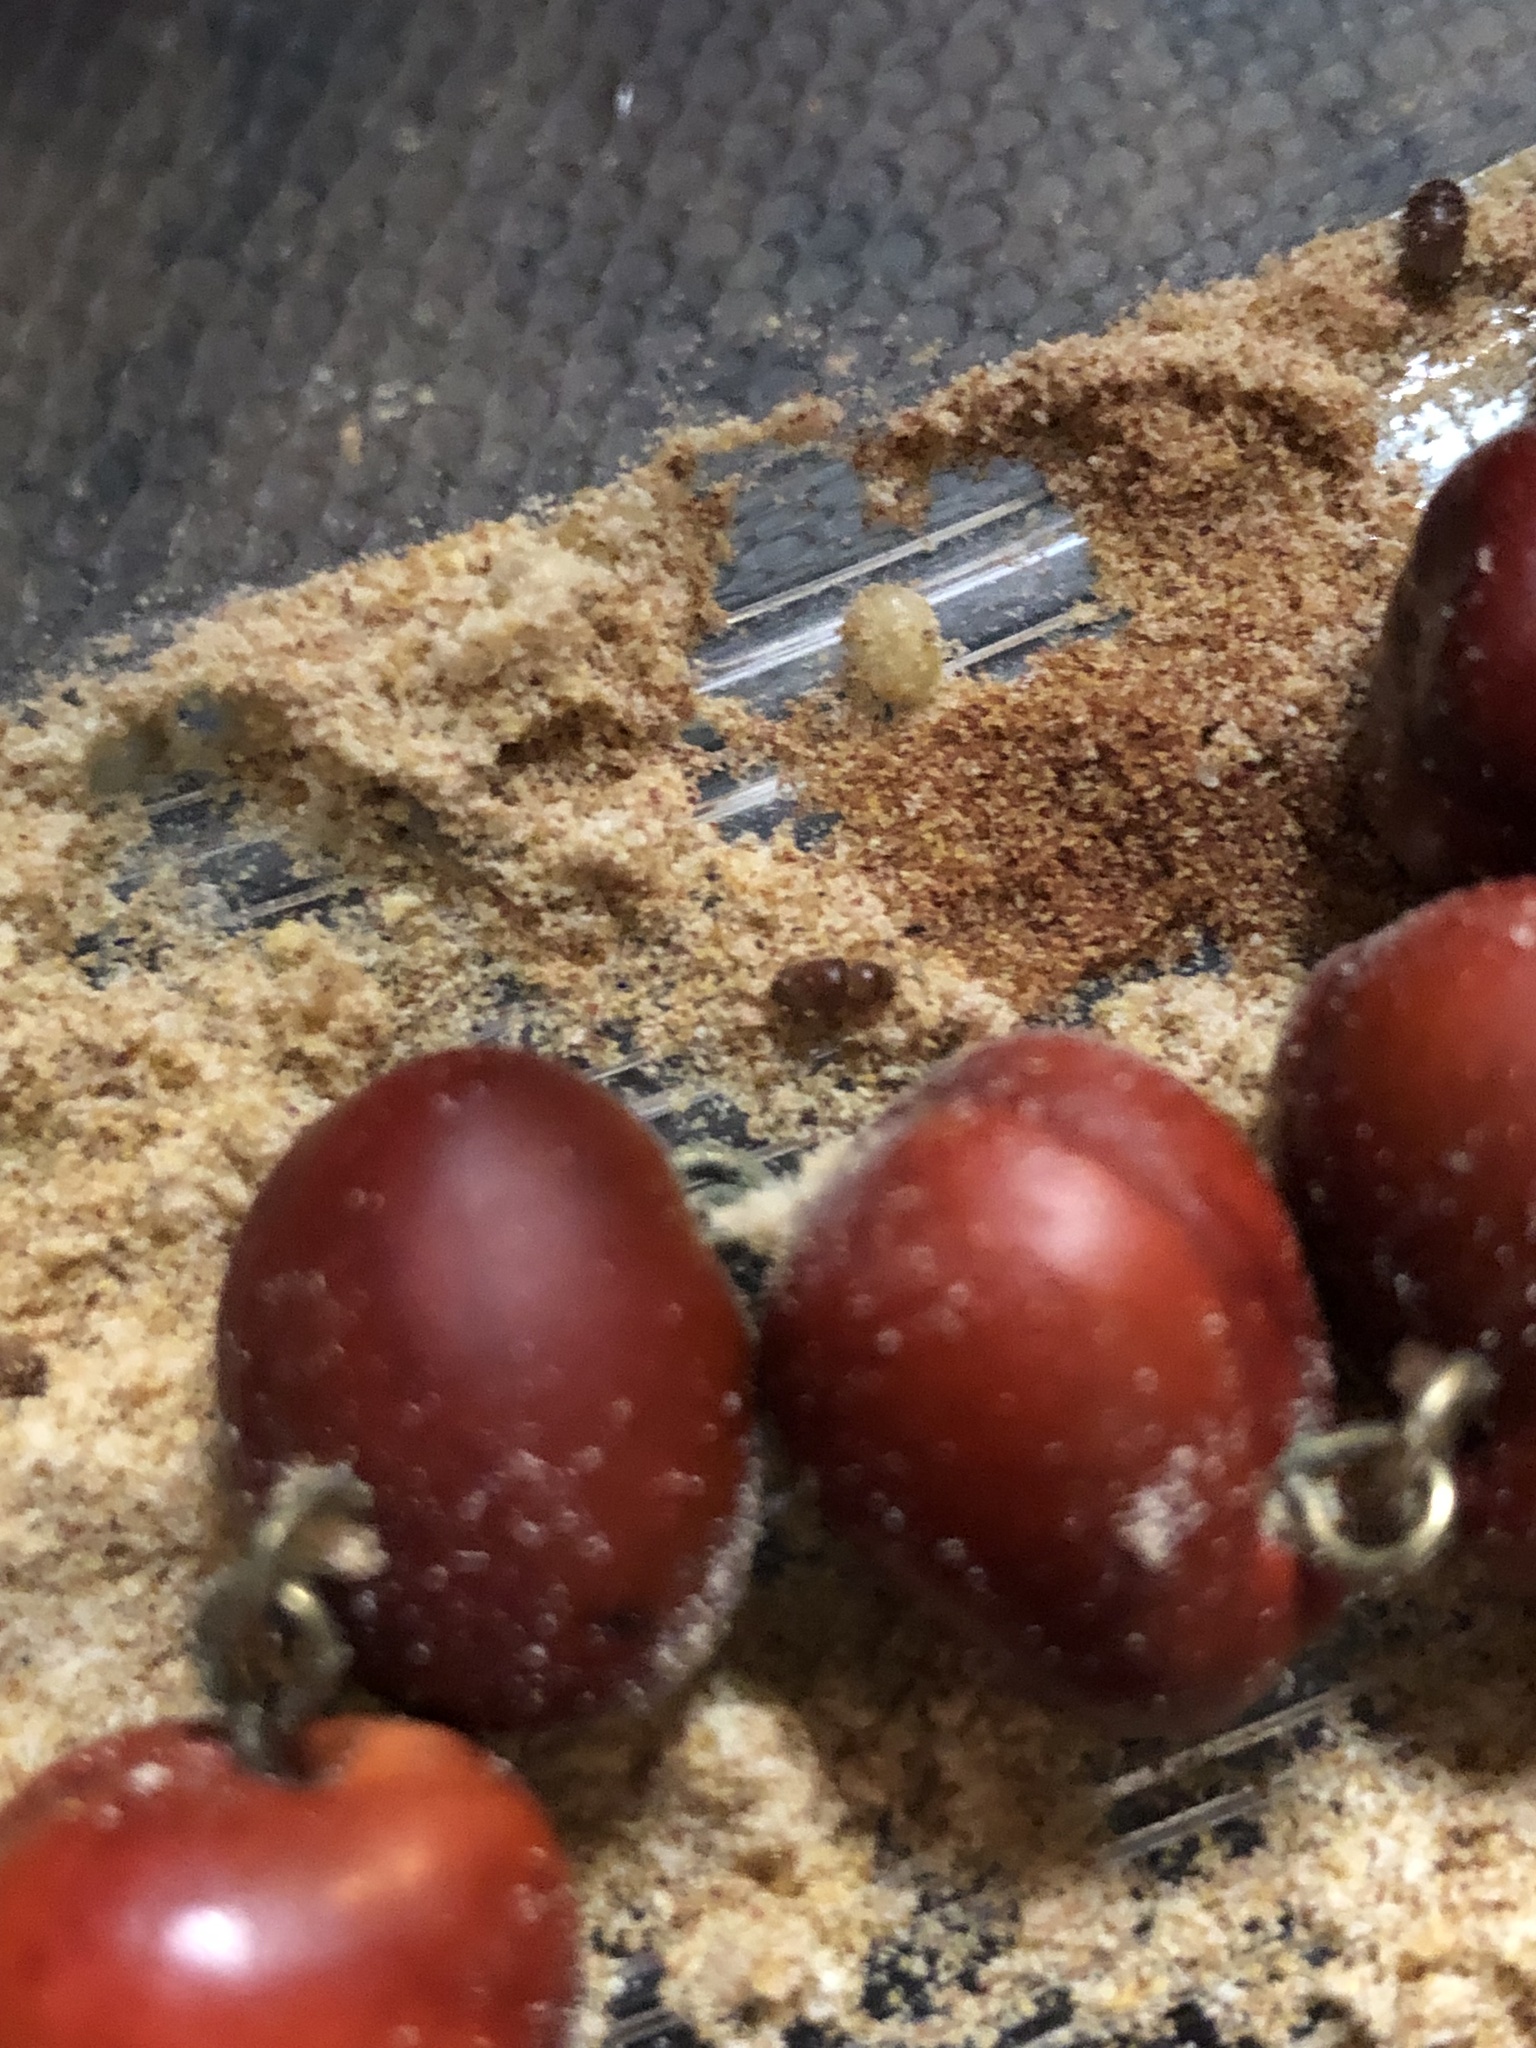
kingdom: Animalia
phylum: Arthropoda
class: Insecta
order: Coleoptera
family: Anobiidae
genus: Lasioderma
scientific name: Lasioderma serricorne
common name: Cigarette beetle
